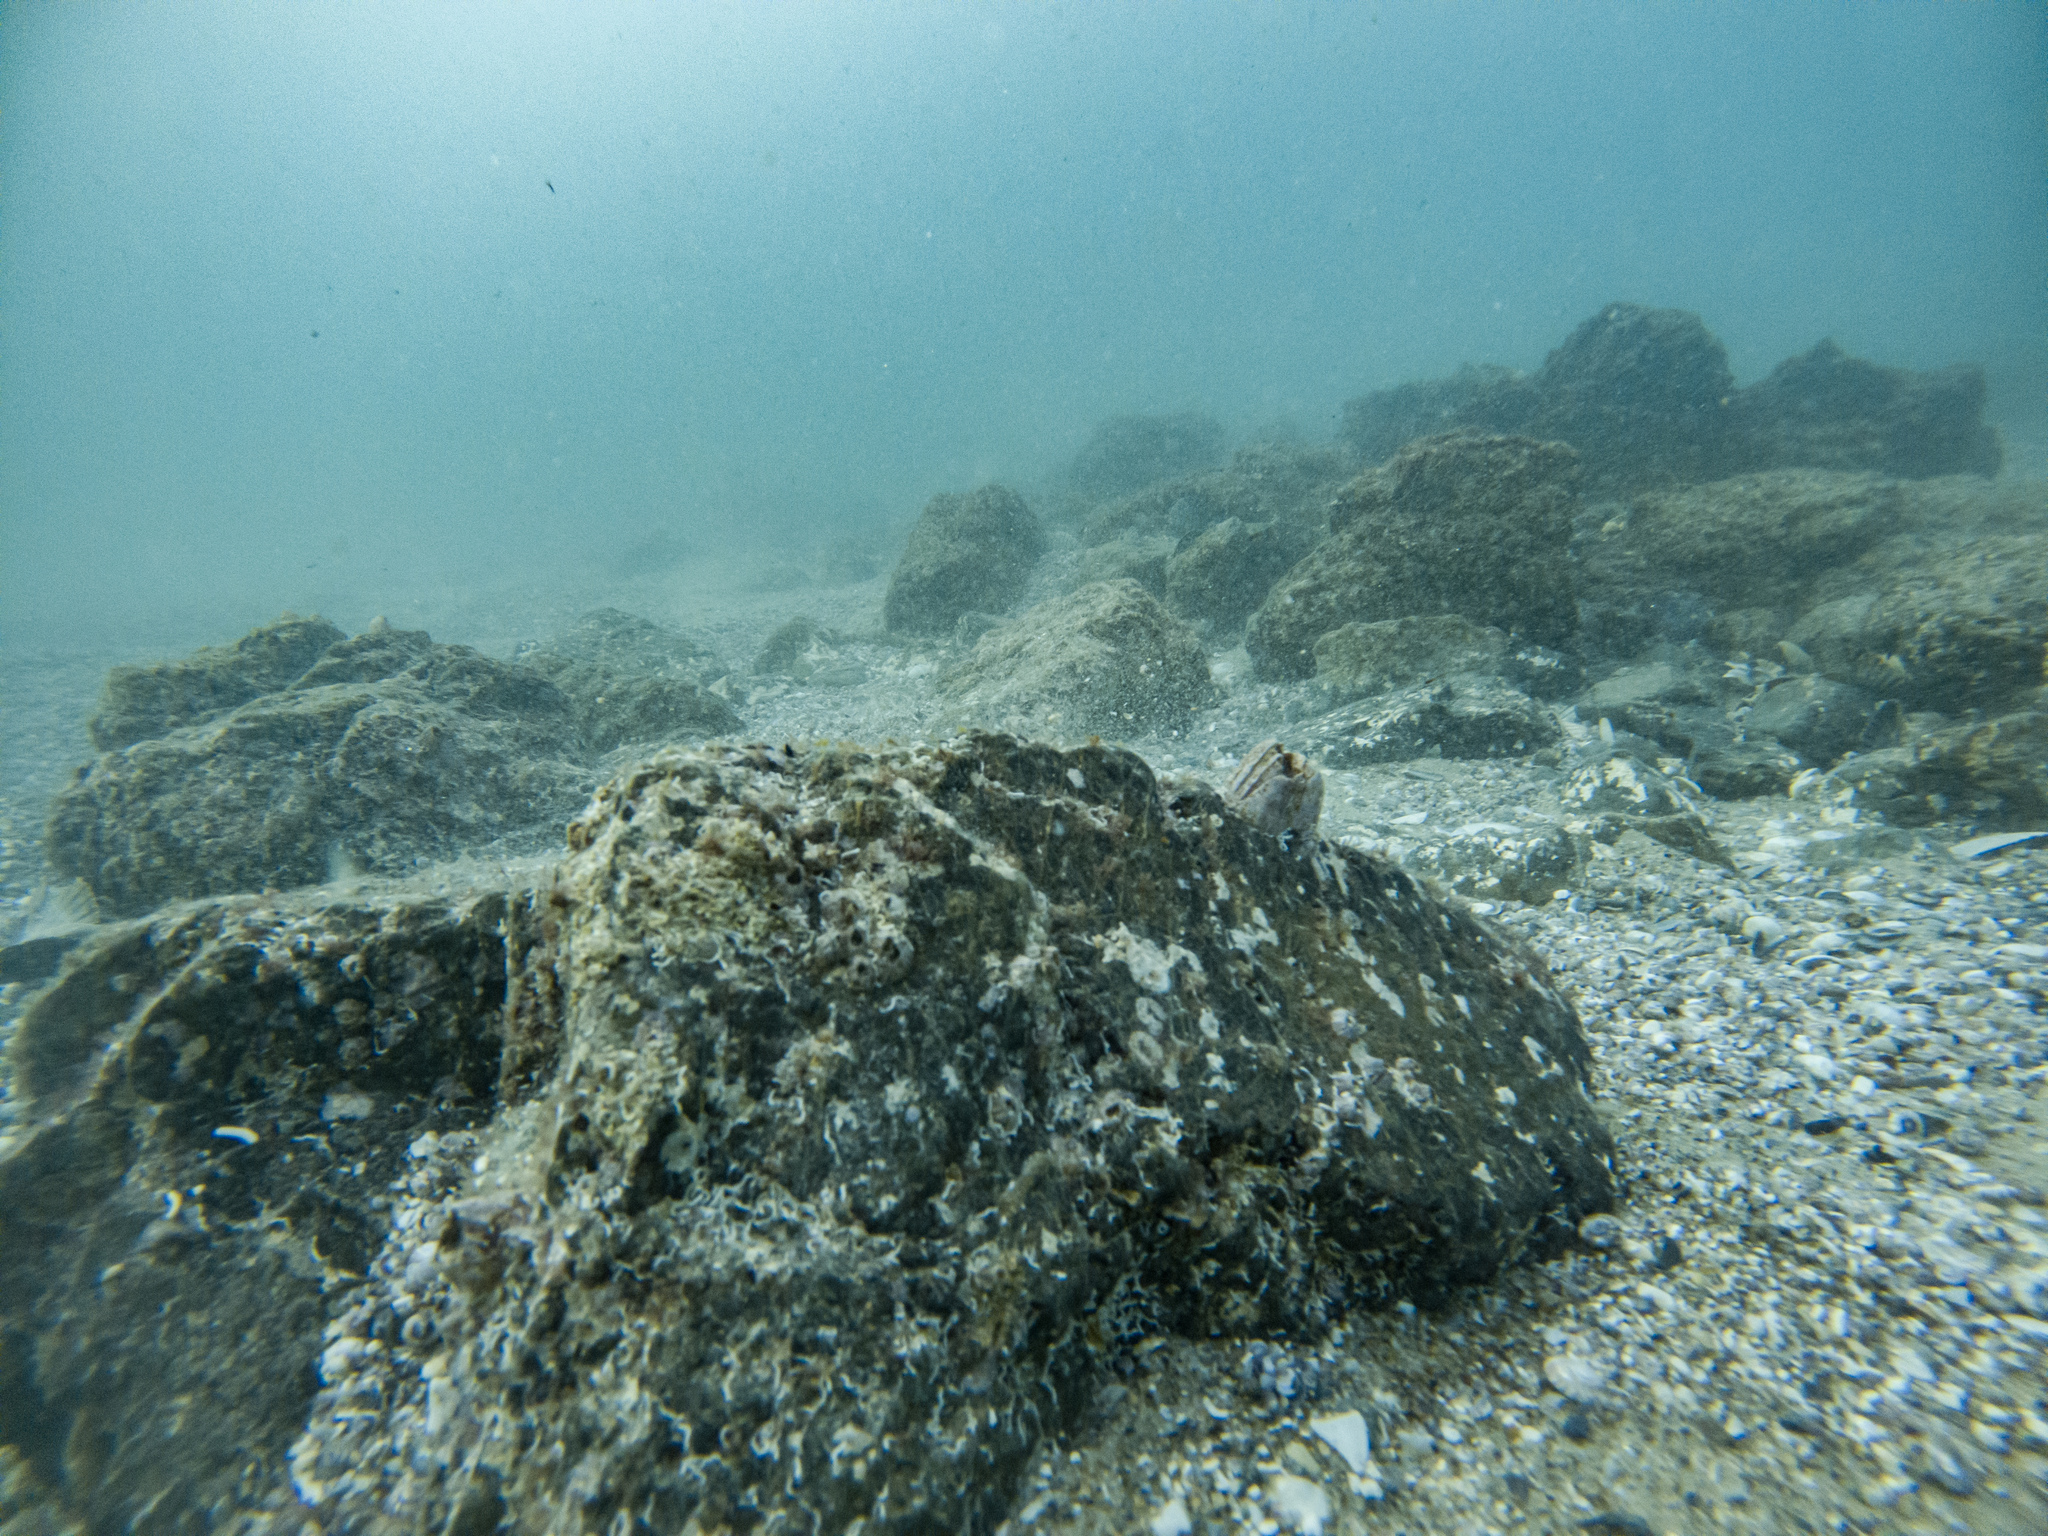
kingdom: Animalia
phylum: Arthropoda
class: Maxillopoda
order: Sessilia
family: Balanidae
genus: Balanus
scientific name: Balanus trigonus
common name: Triangle barnacle
